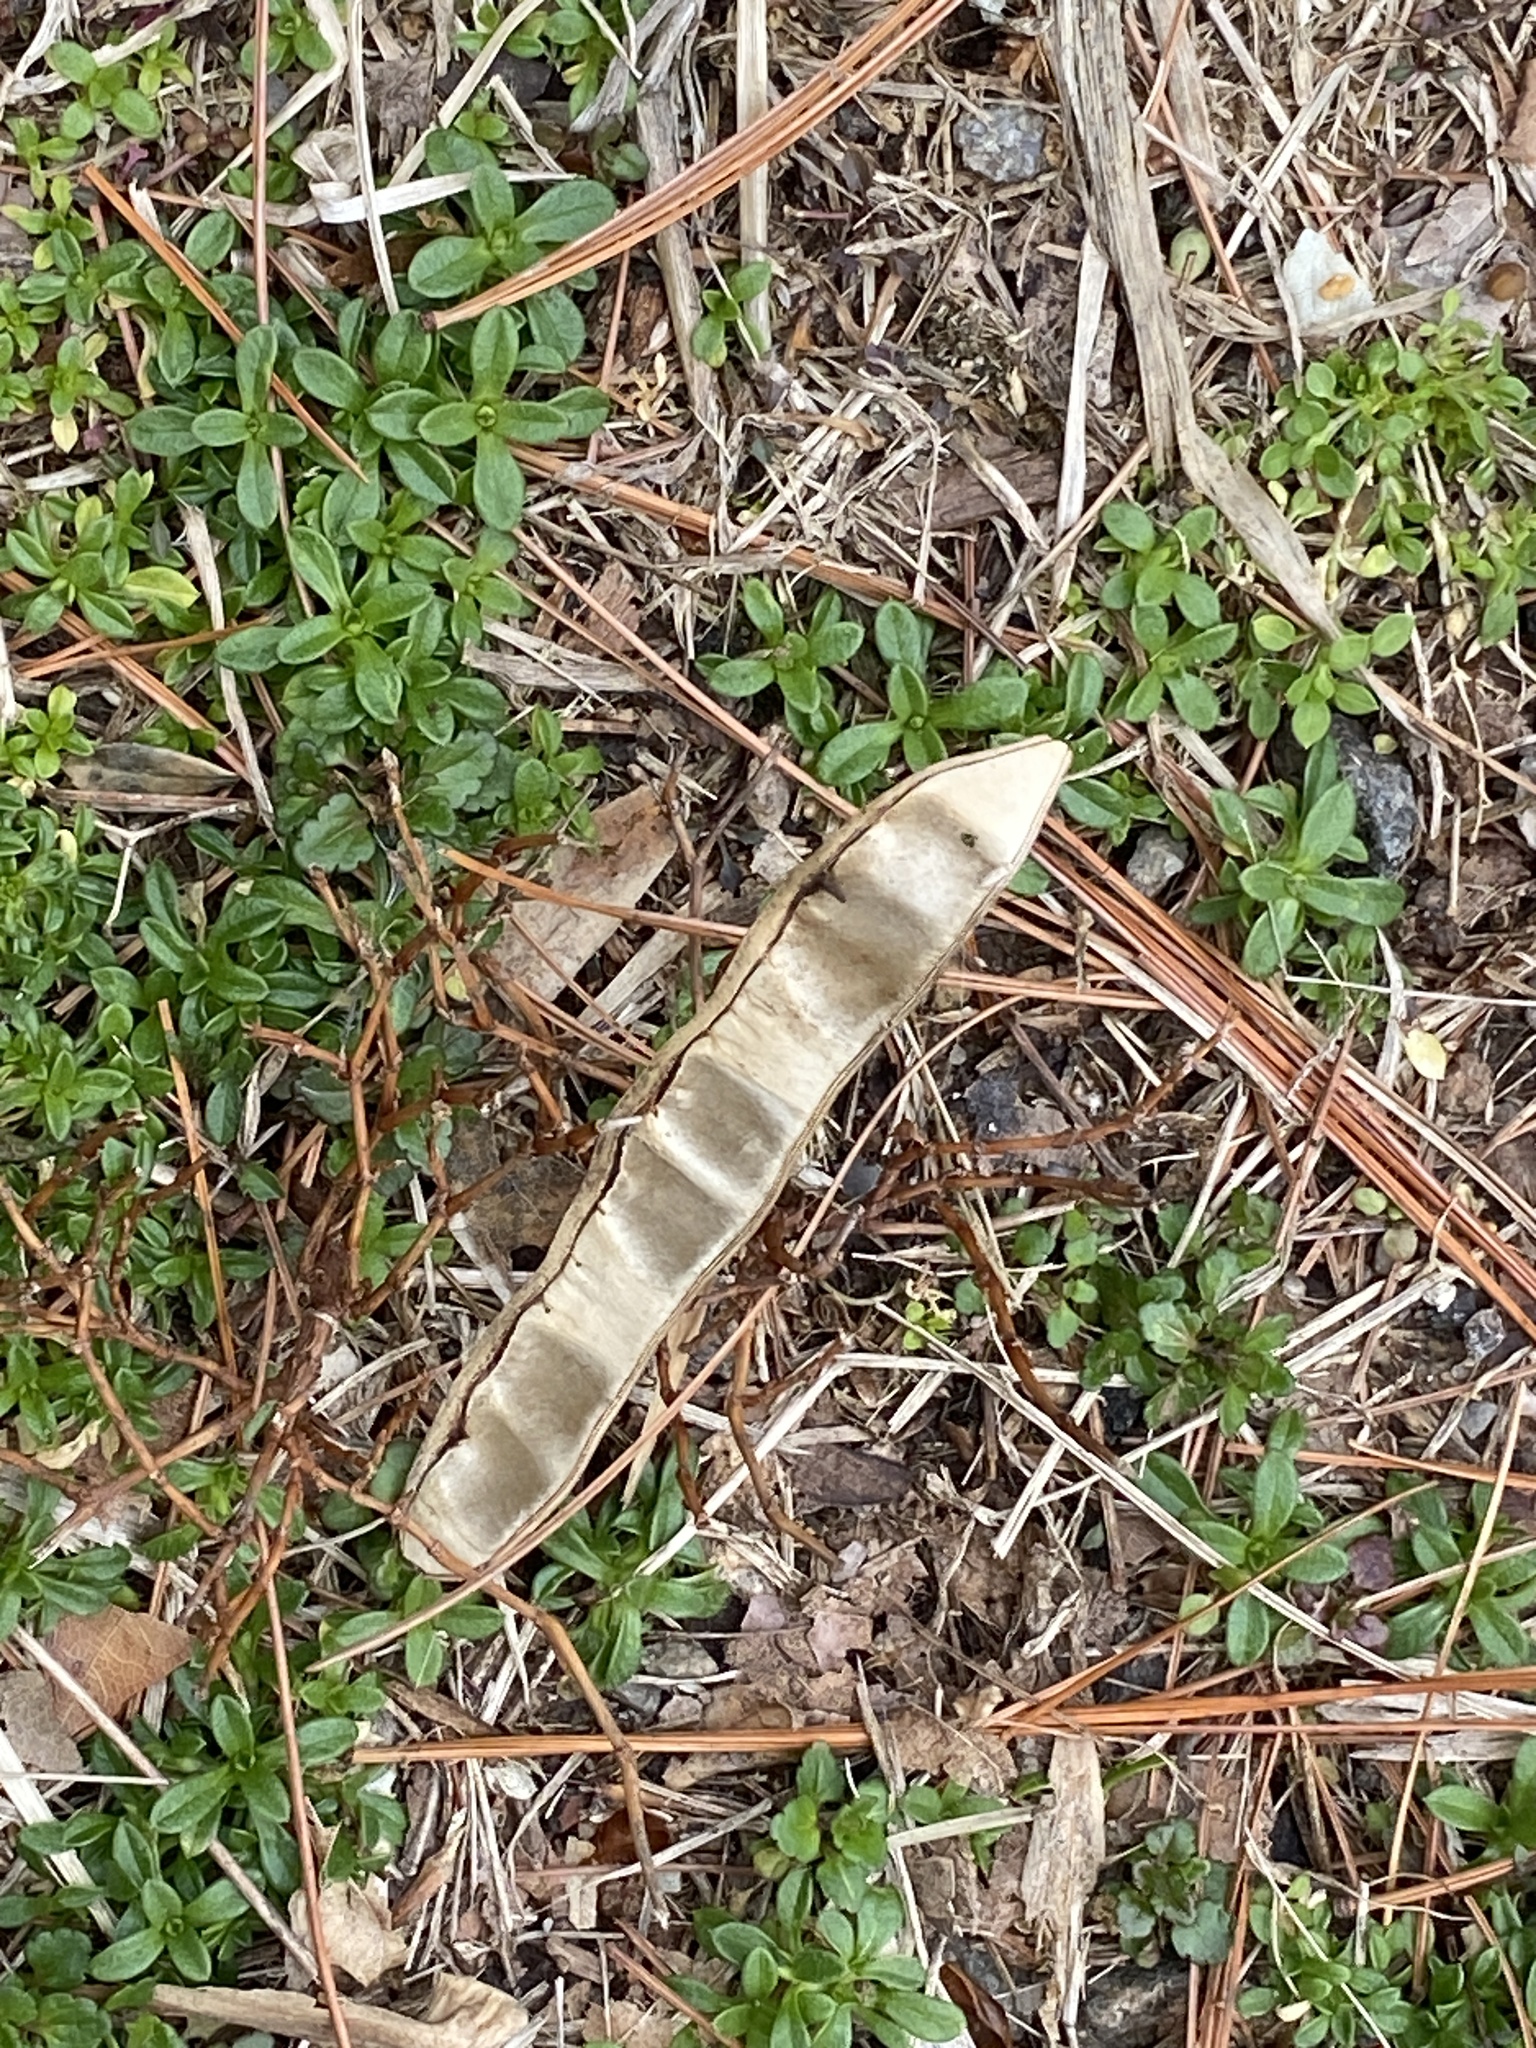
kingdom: Plantae
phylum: Tracheophyta
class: Magnoliopsida
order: Fabales
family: Fabaceae
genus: Robinia
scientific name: Robinia pseudoacacia
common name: Black locust
